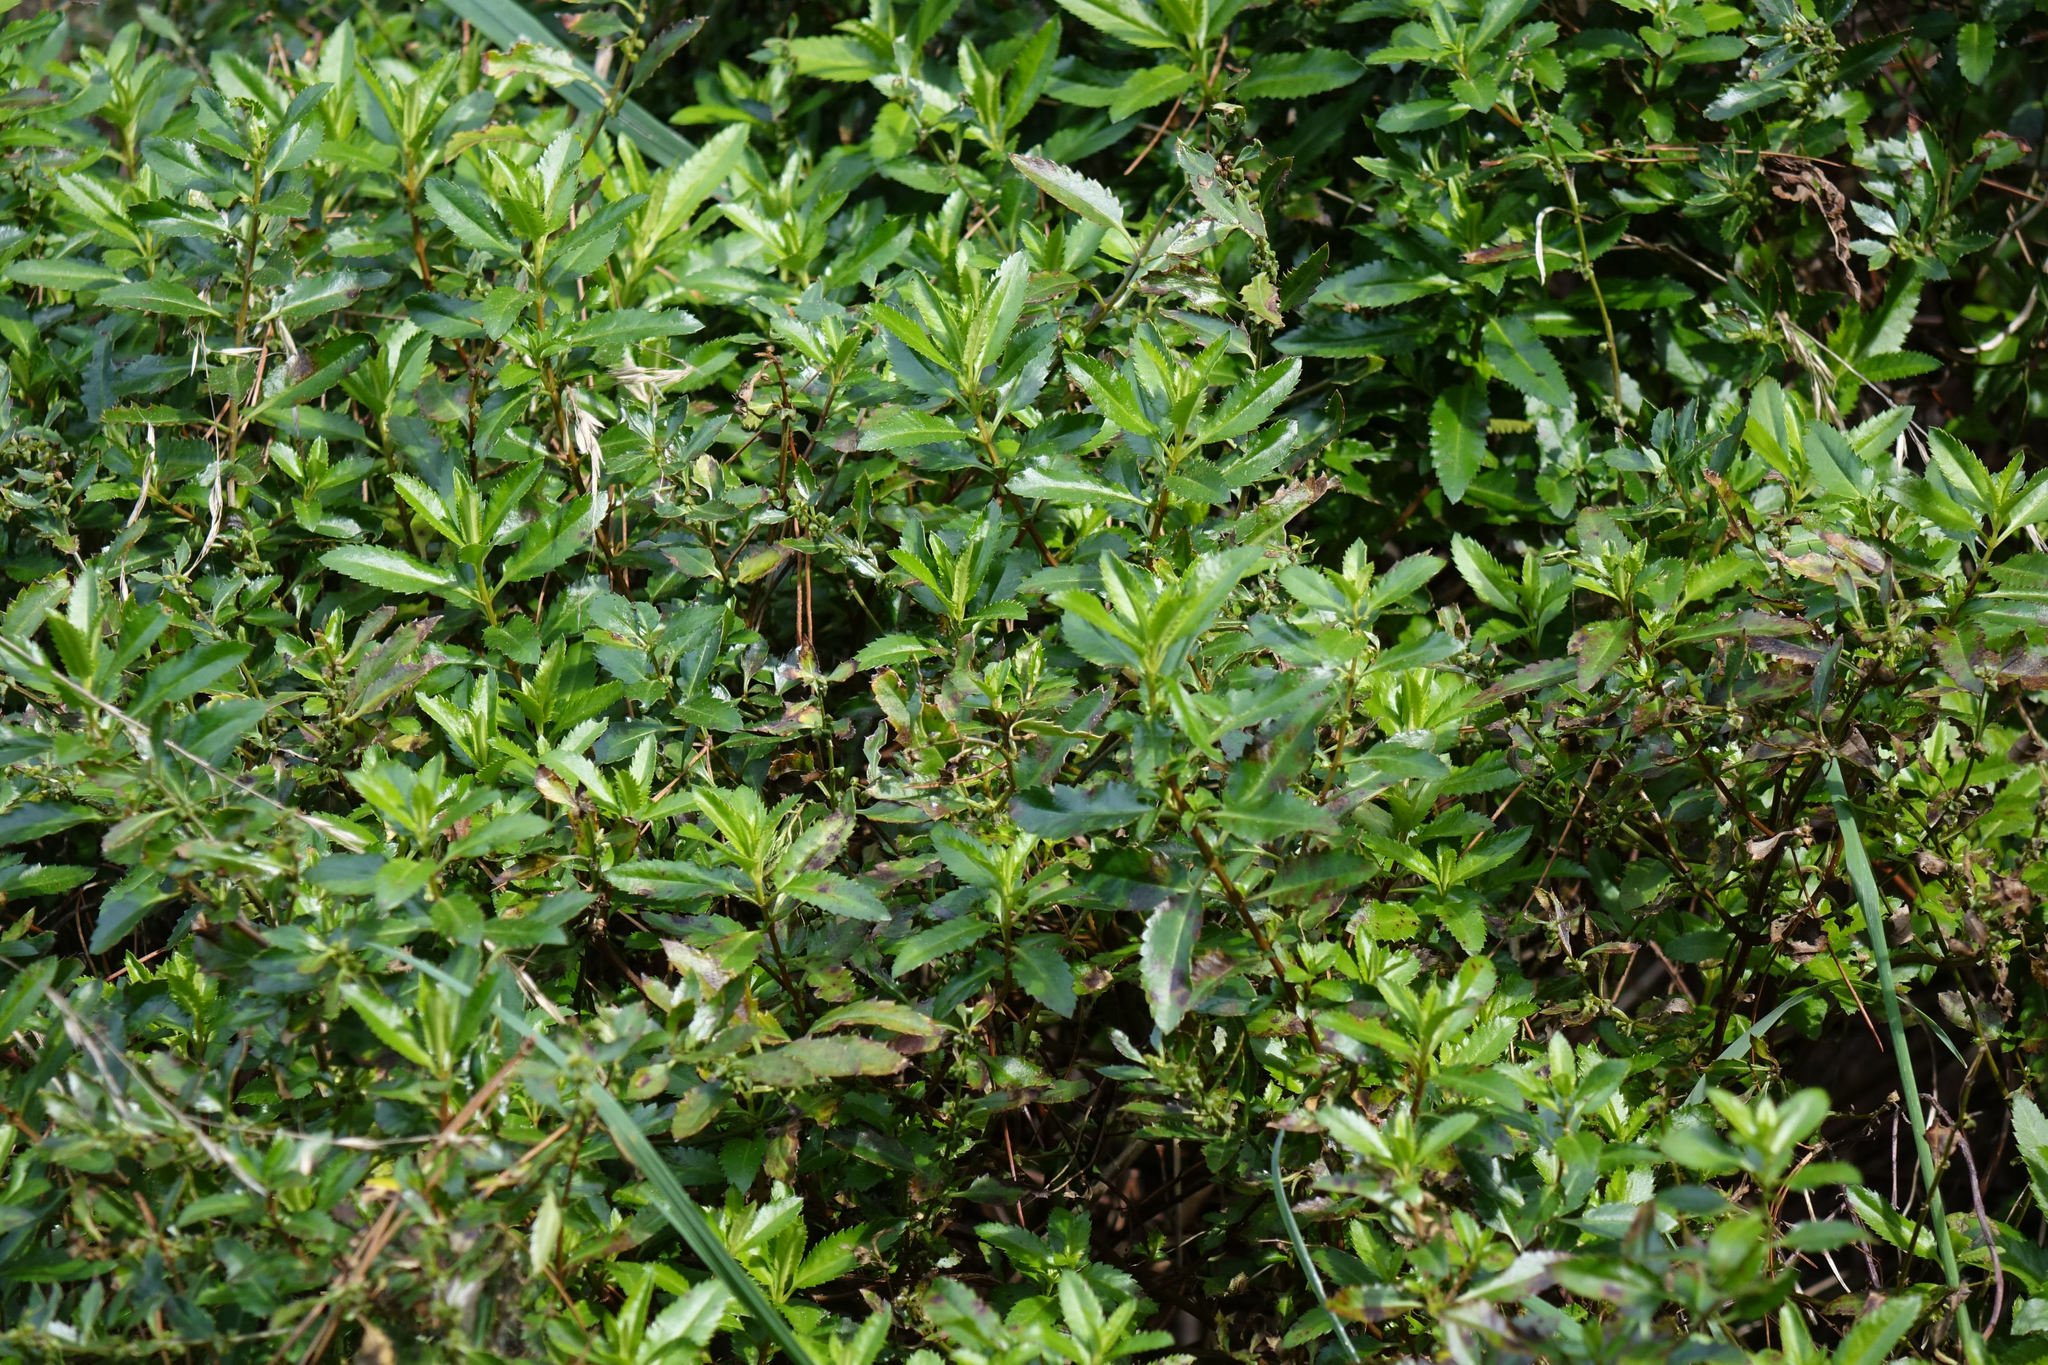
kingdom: Plantae
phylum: Tracheophyta
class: Magnoliopsida
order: Saxifragales
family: Haloragaceae
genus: Haloragis
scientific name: Haloragis erecta
